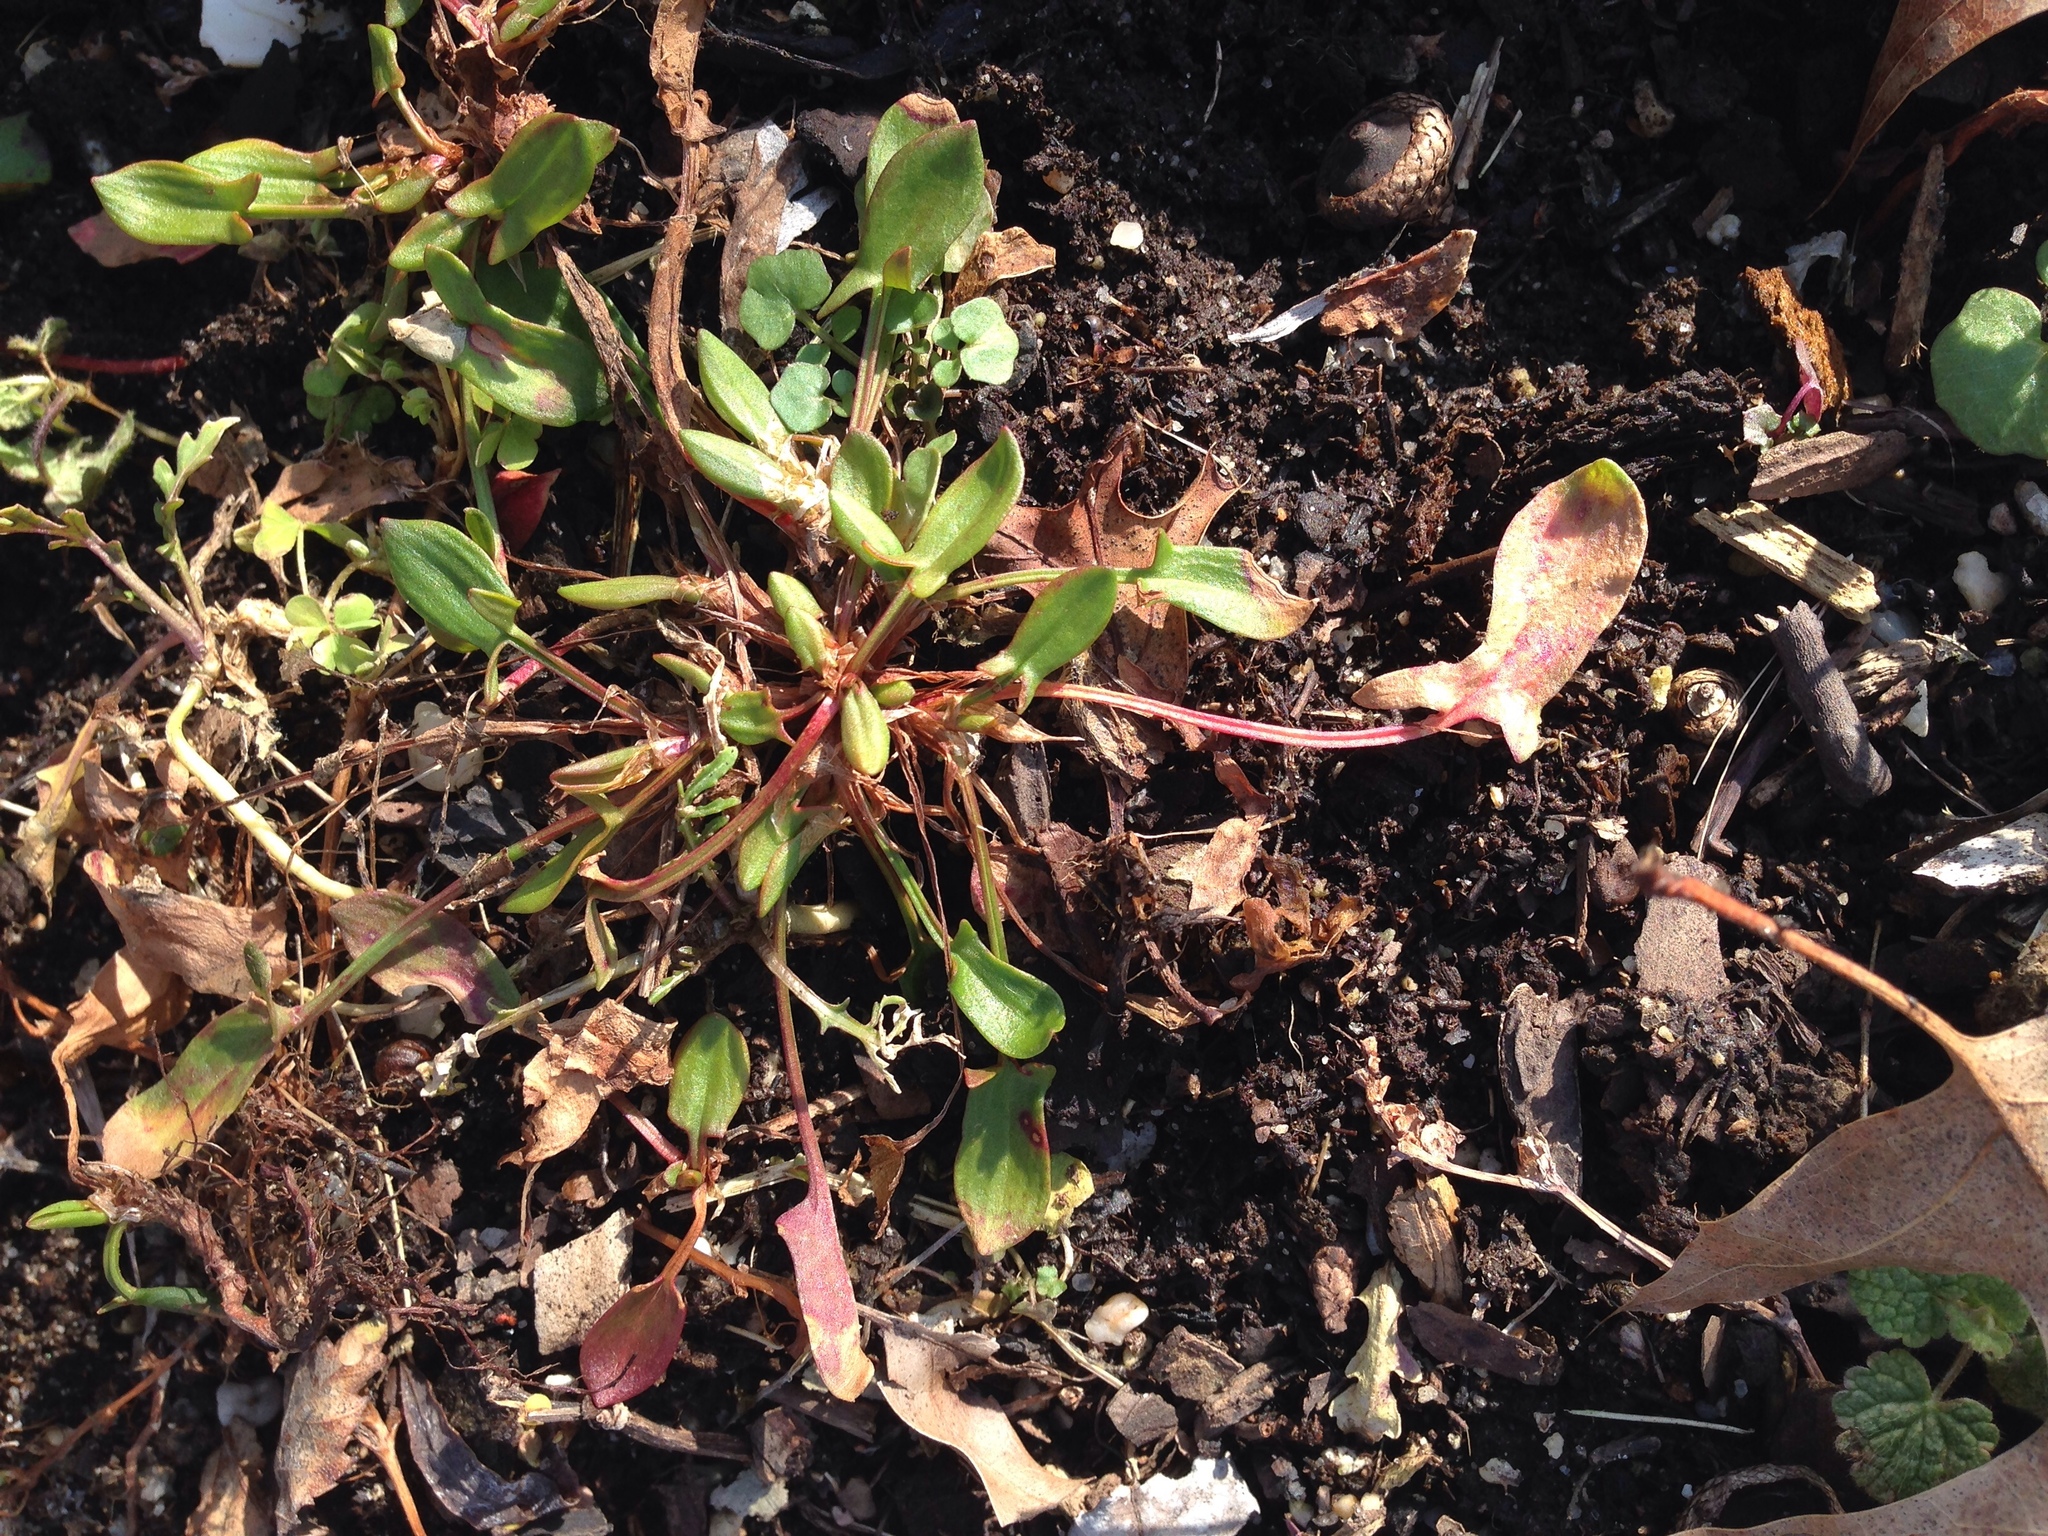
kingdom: Plantae
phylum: Tracheophyta
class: Magnoliopsida
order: Caryophyllales
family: Polygonaceae
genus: Rumex
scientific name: Rumex acetosella
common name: Common sheep sorrel
